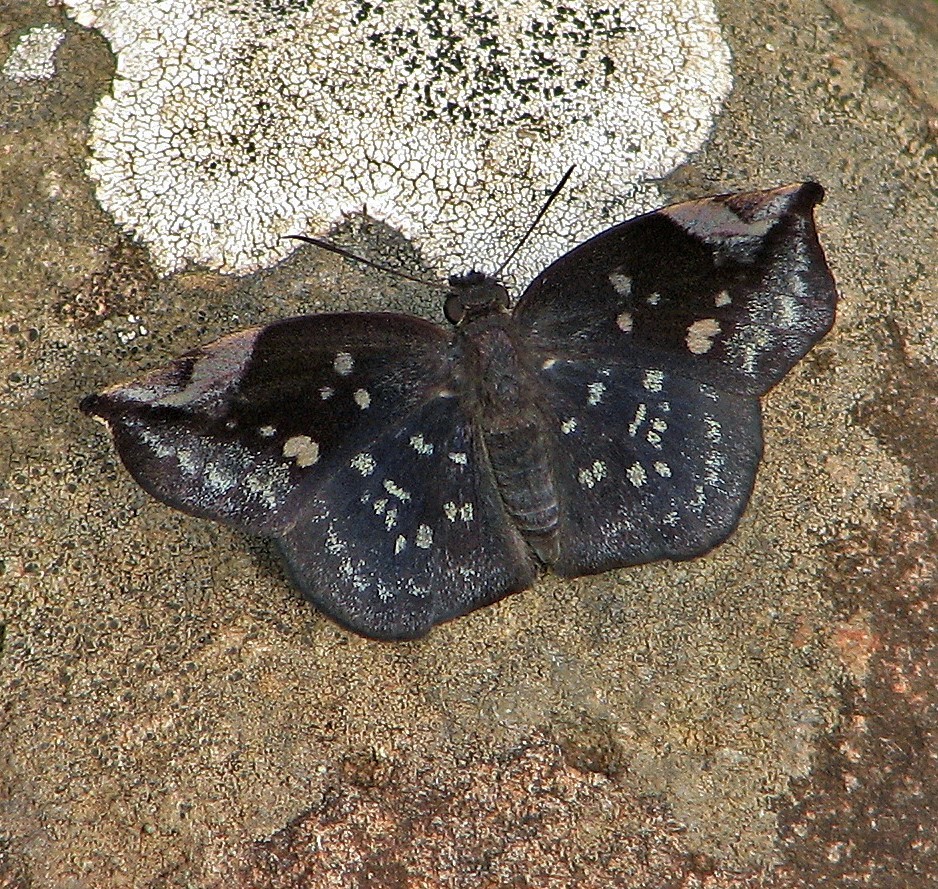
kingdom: Animalia
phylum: Arthropoda
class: Insecta
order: Lepidoptera
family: Hesperiidae
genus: Achlyodes
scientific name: Achlyodes thraso
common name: Sickle-winged skipper
